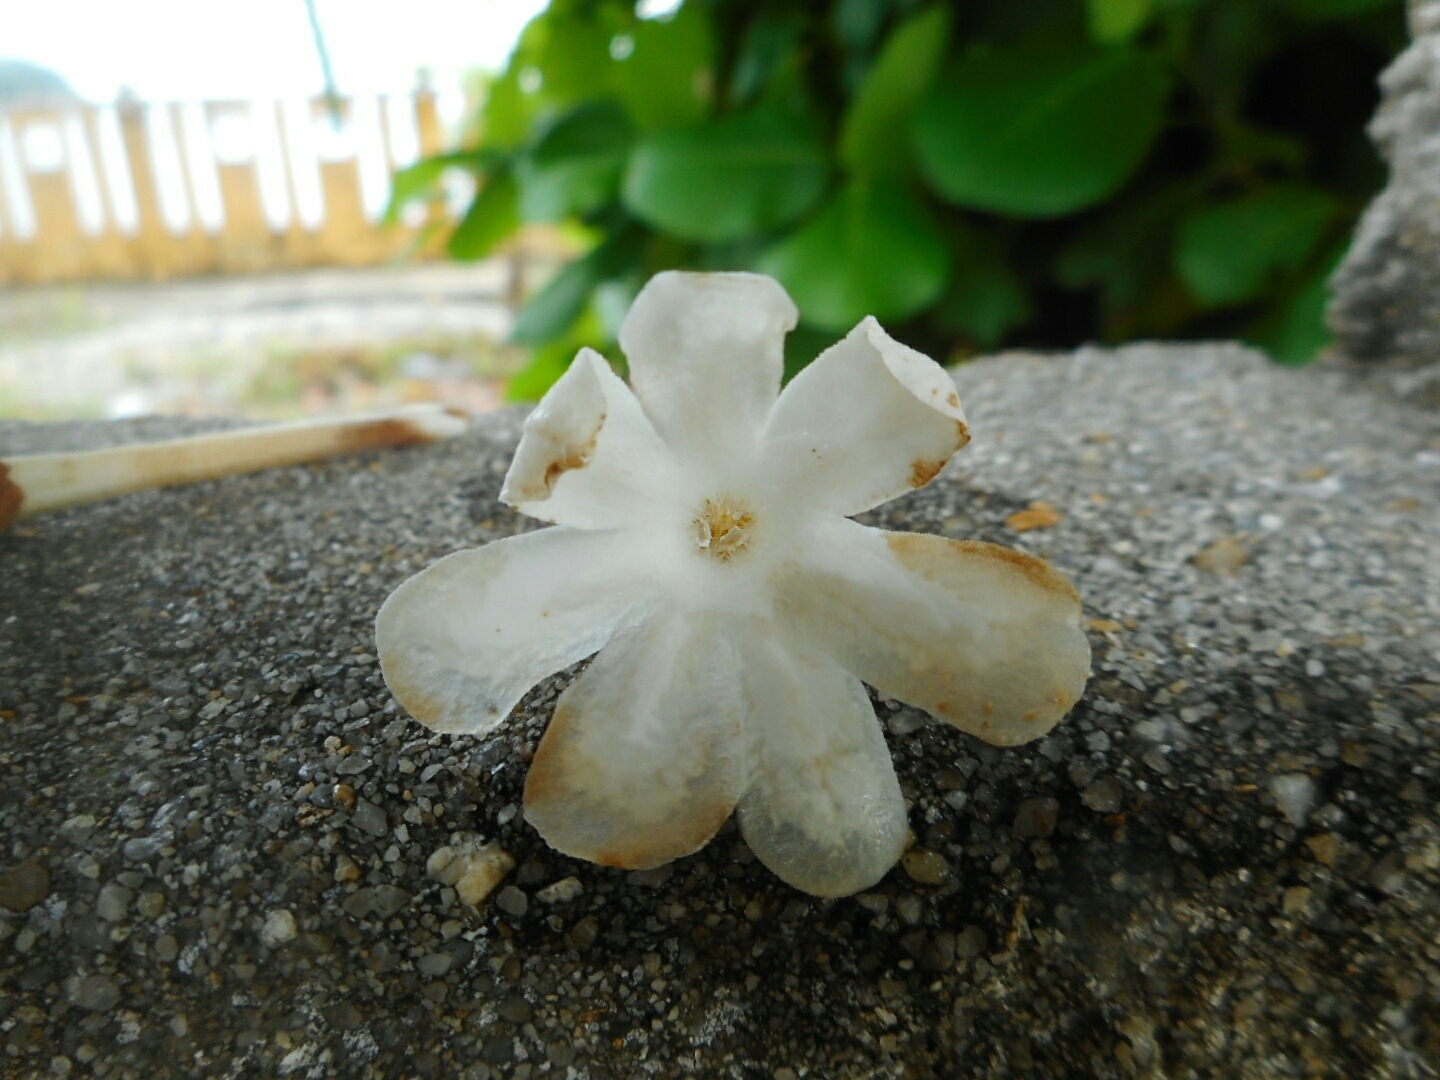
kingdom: Plantae
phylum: Tracheophyta
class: Magnoliopsida
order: Gentianales
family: Rubiaceae
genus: Guettarda
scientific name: Guettarda speciosa
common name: Sea randa
